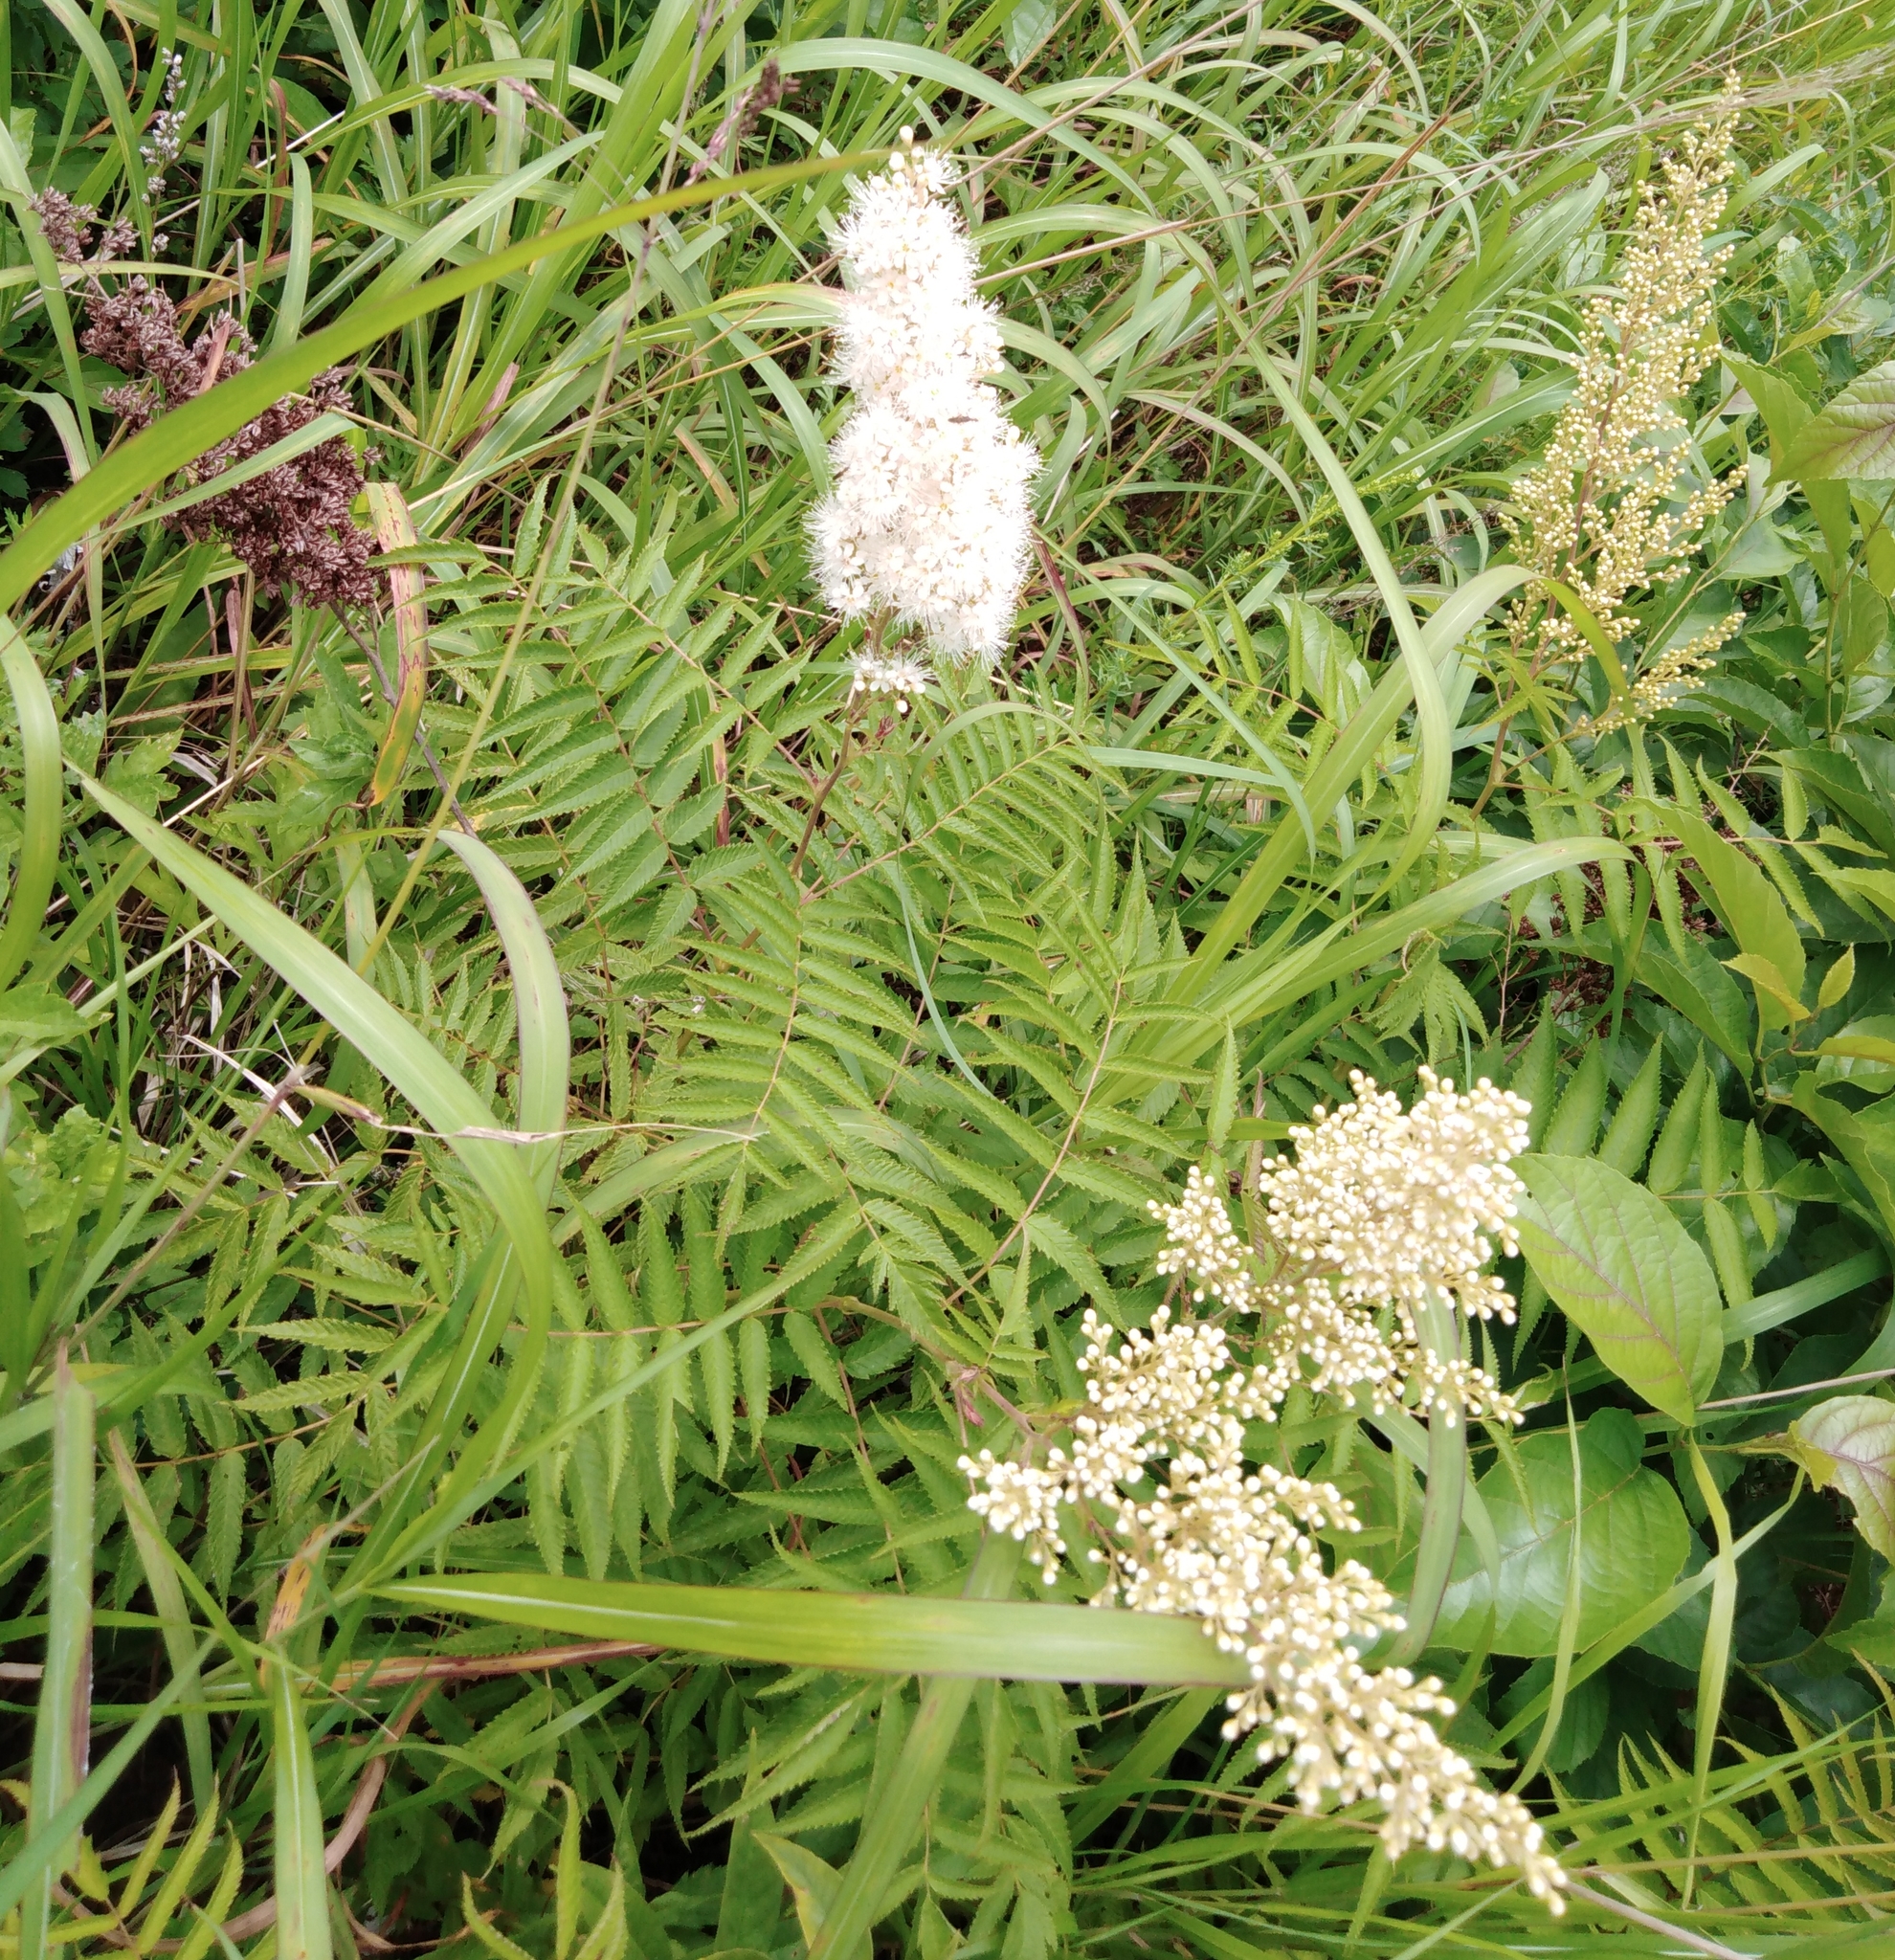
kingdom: Plantae
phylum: Tracheophyta
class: Magnoliopsida
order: Rosales
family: Rosaceae
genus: Sorbaria
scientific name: Sorbaria sorbifolia
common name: False spiraea
